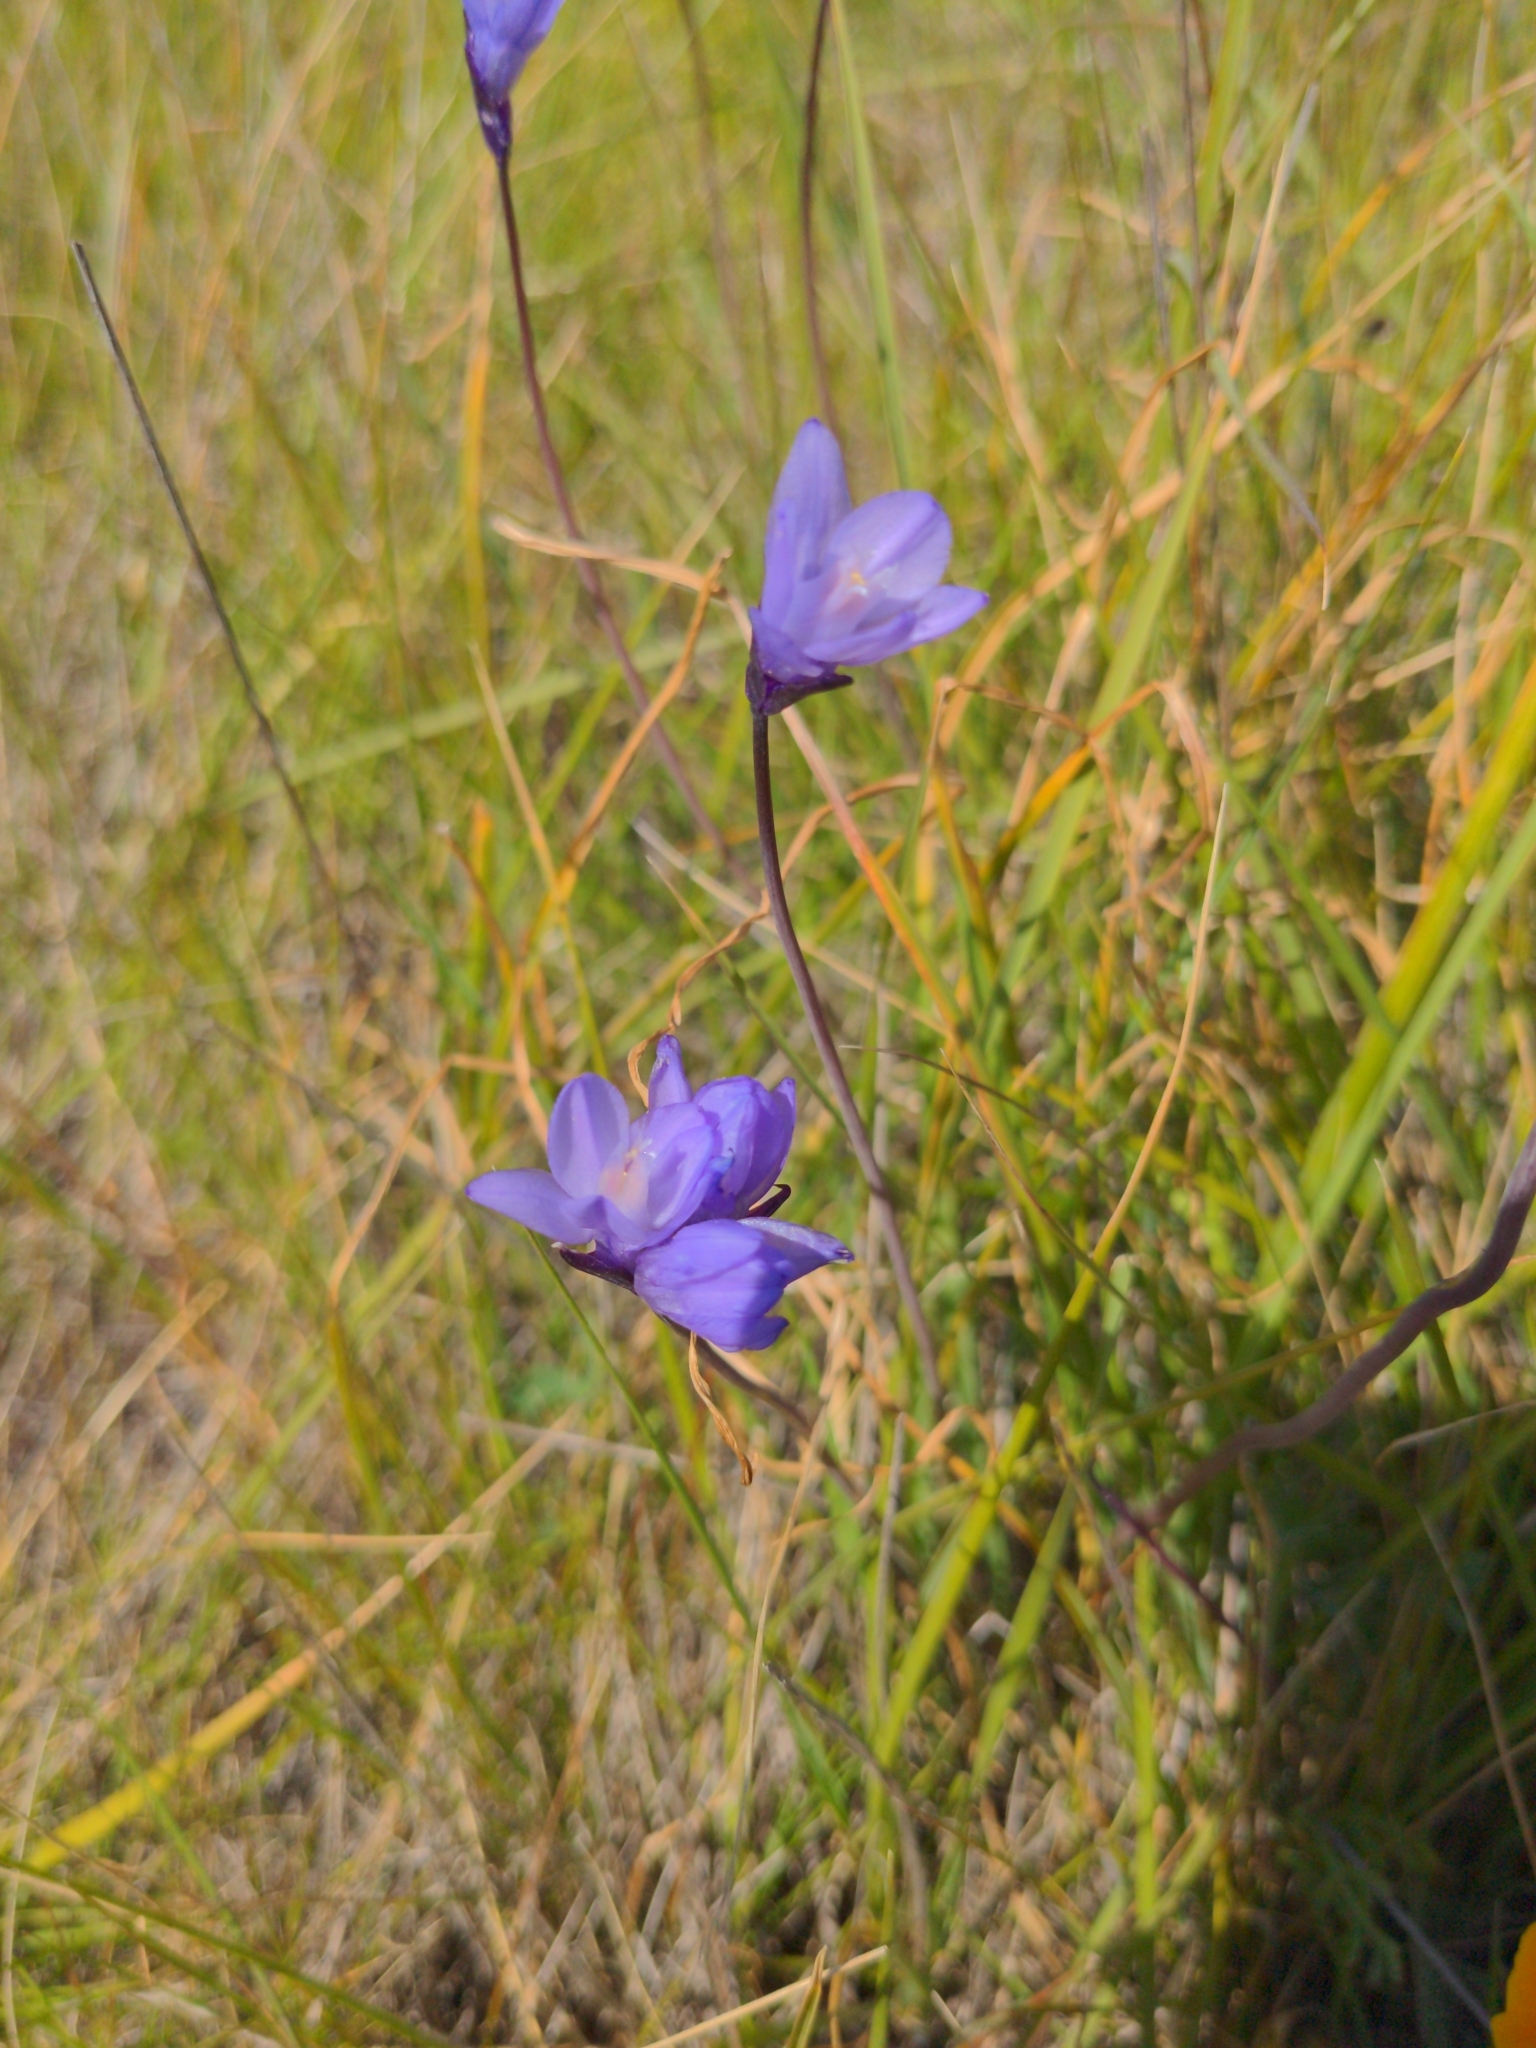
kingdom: Plantae
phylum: Tracheophyta
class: Liliopsida
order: Asparagales
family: Asparagaceae
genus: Dipterostemon
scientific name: Dipterostemon capitatus
